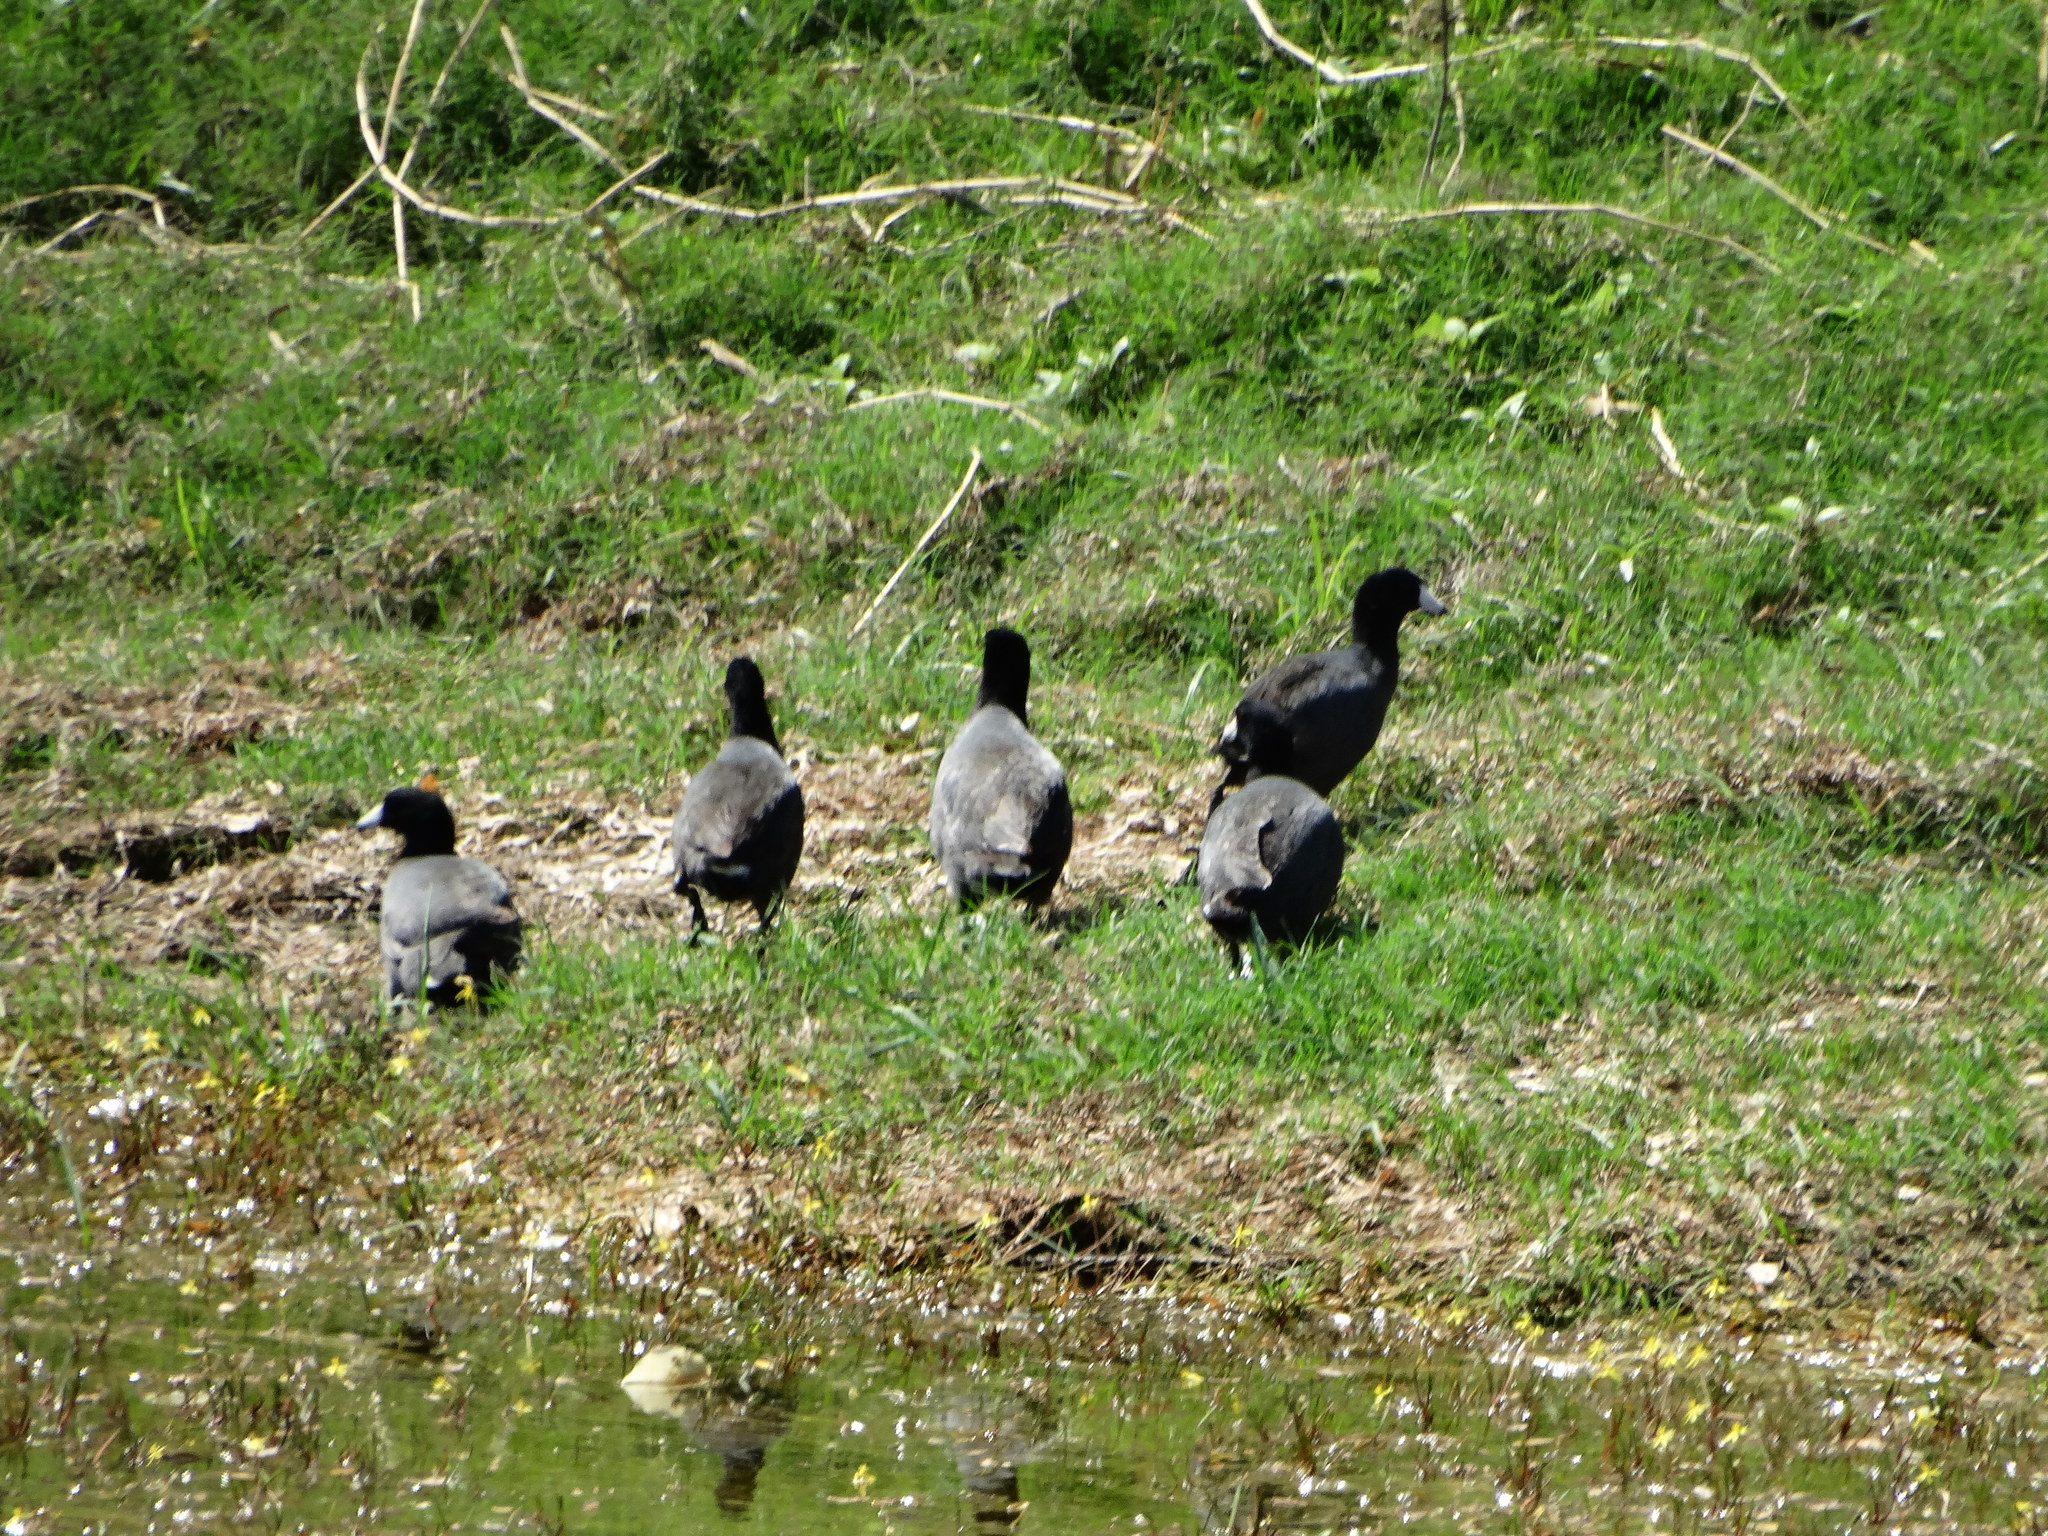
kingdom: Animalia
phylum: Chordata
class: Aves
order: Gruiformes
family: Rallidae
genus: Fulica
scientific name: Fulica americana
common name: American coot
